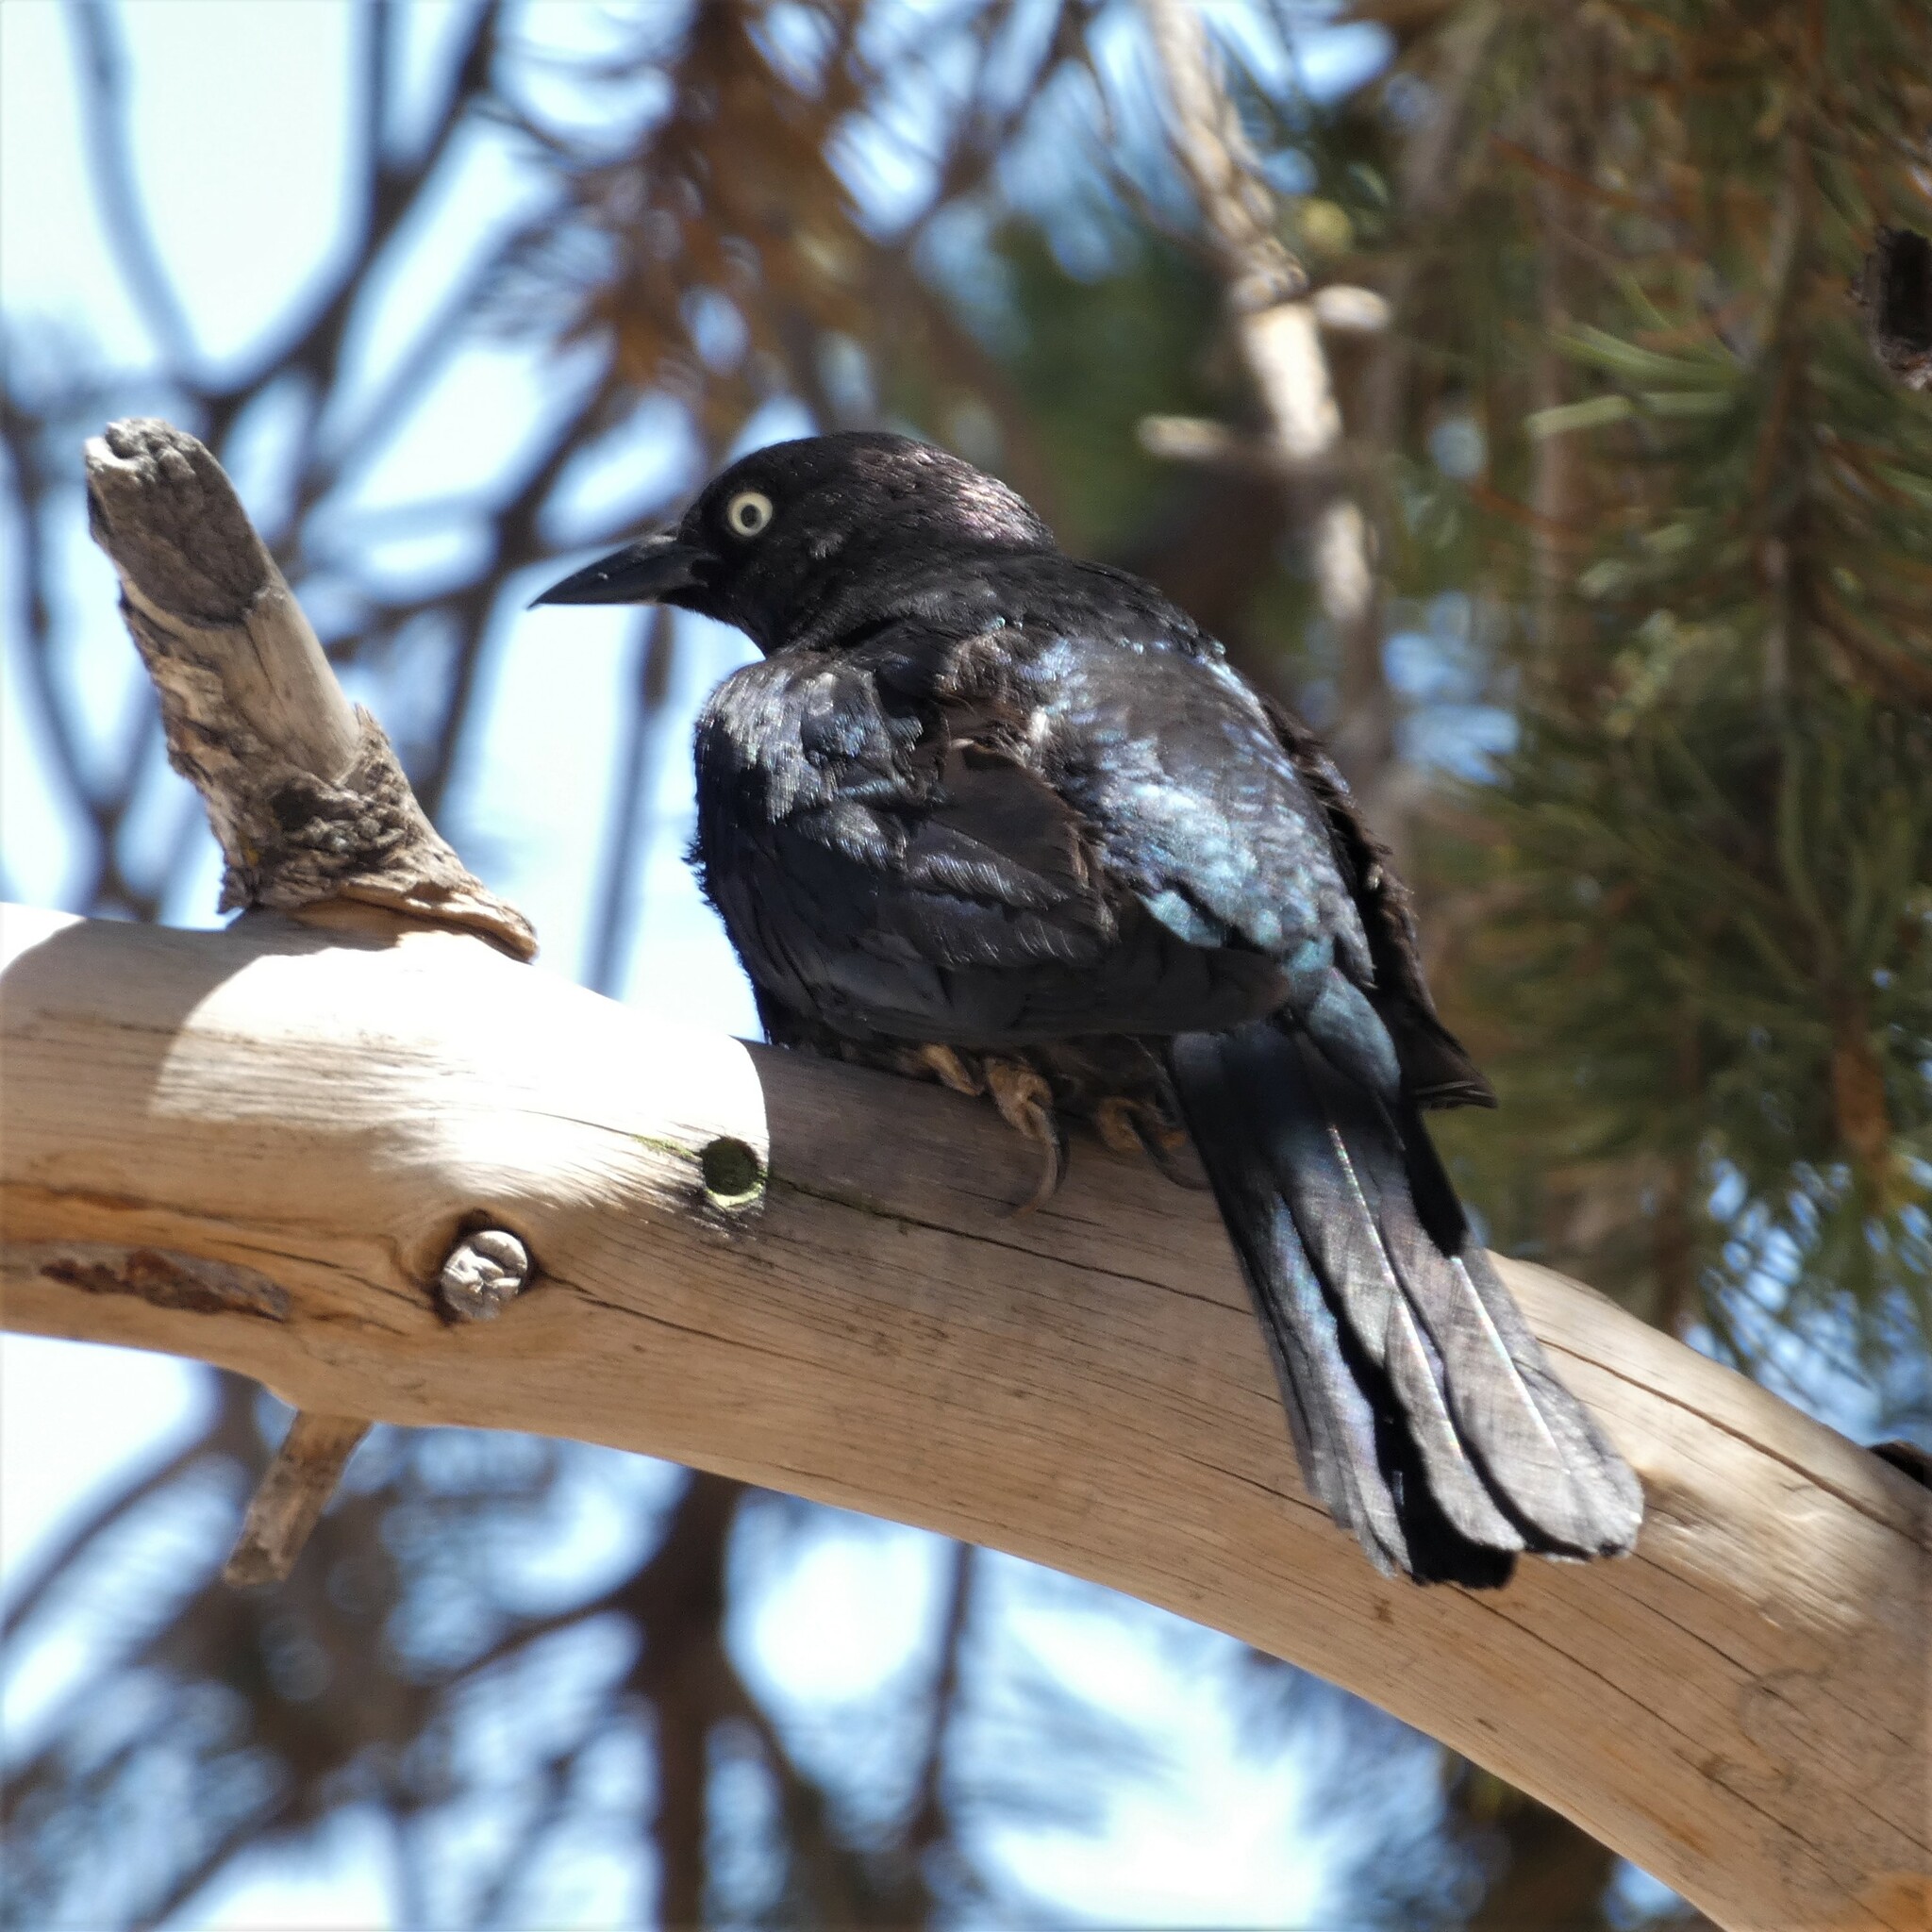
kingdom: Animalia
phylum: Chordata
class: Aves
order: Passeriformes
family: Icteridae
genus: Euphagus
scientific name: Euphagus cyanocephalus
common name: Brewer's blackbird
